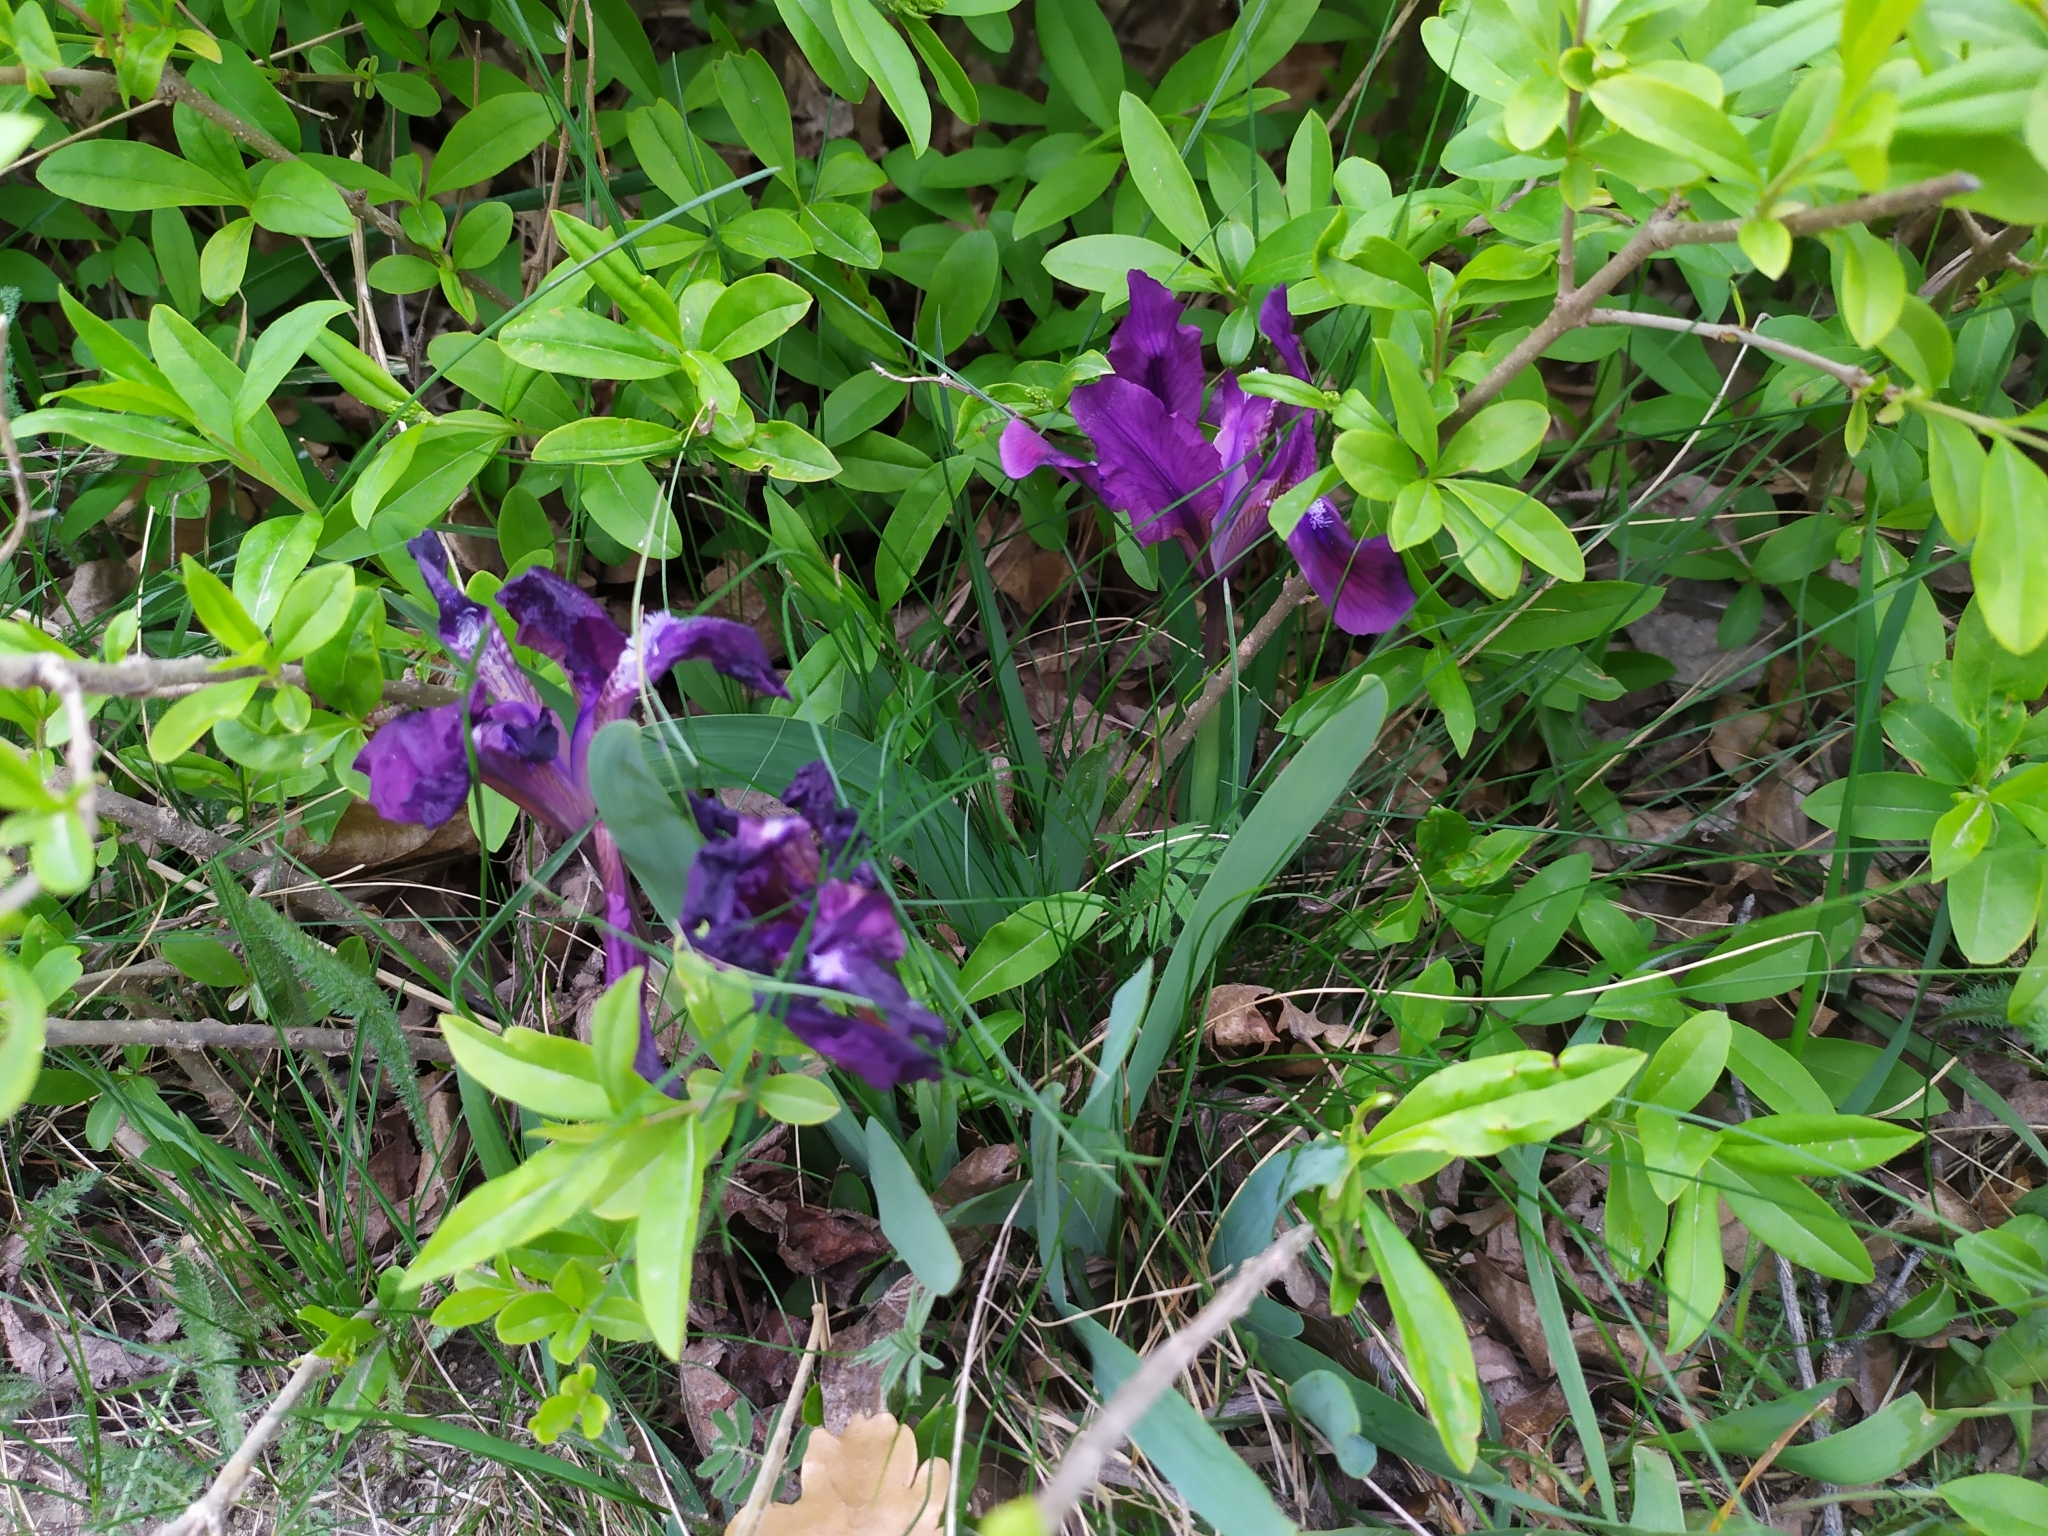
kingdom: Plantae
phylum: Tracheophyta
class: Liliopsida
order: Asparagales
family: Iridaceae
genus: Iris
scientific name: Iris pumila
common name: Dwarf iris
